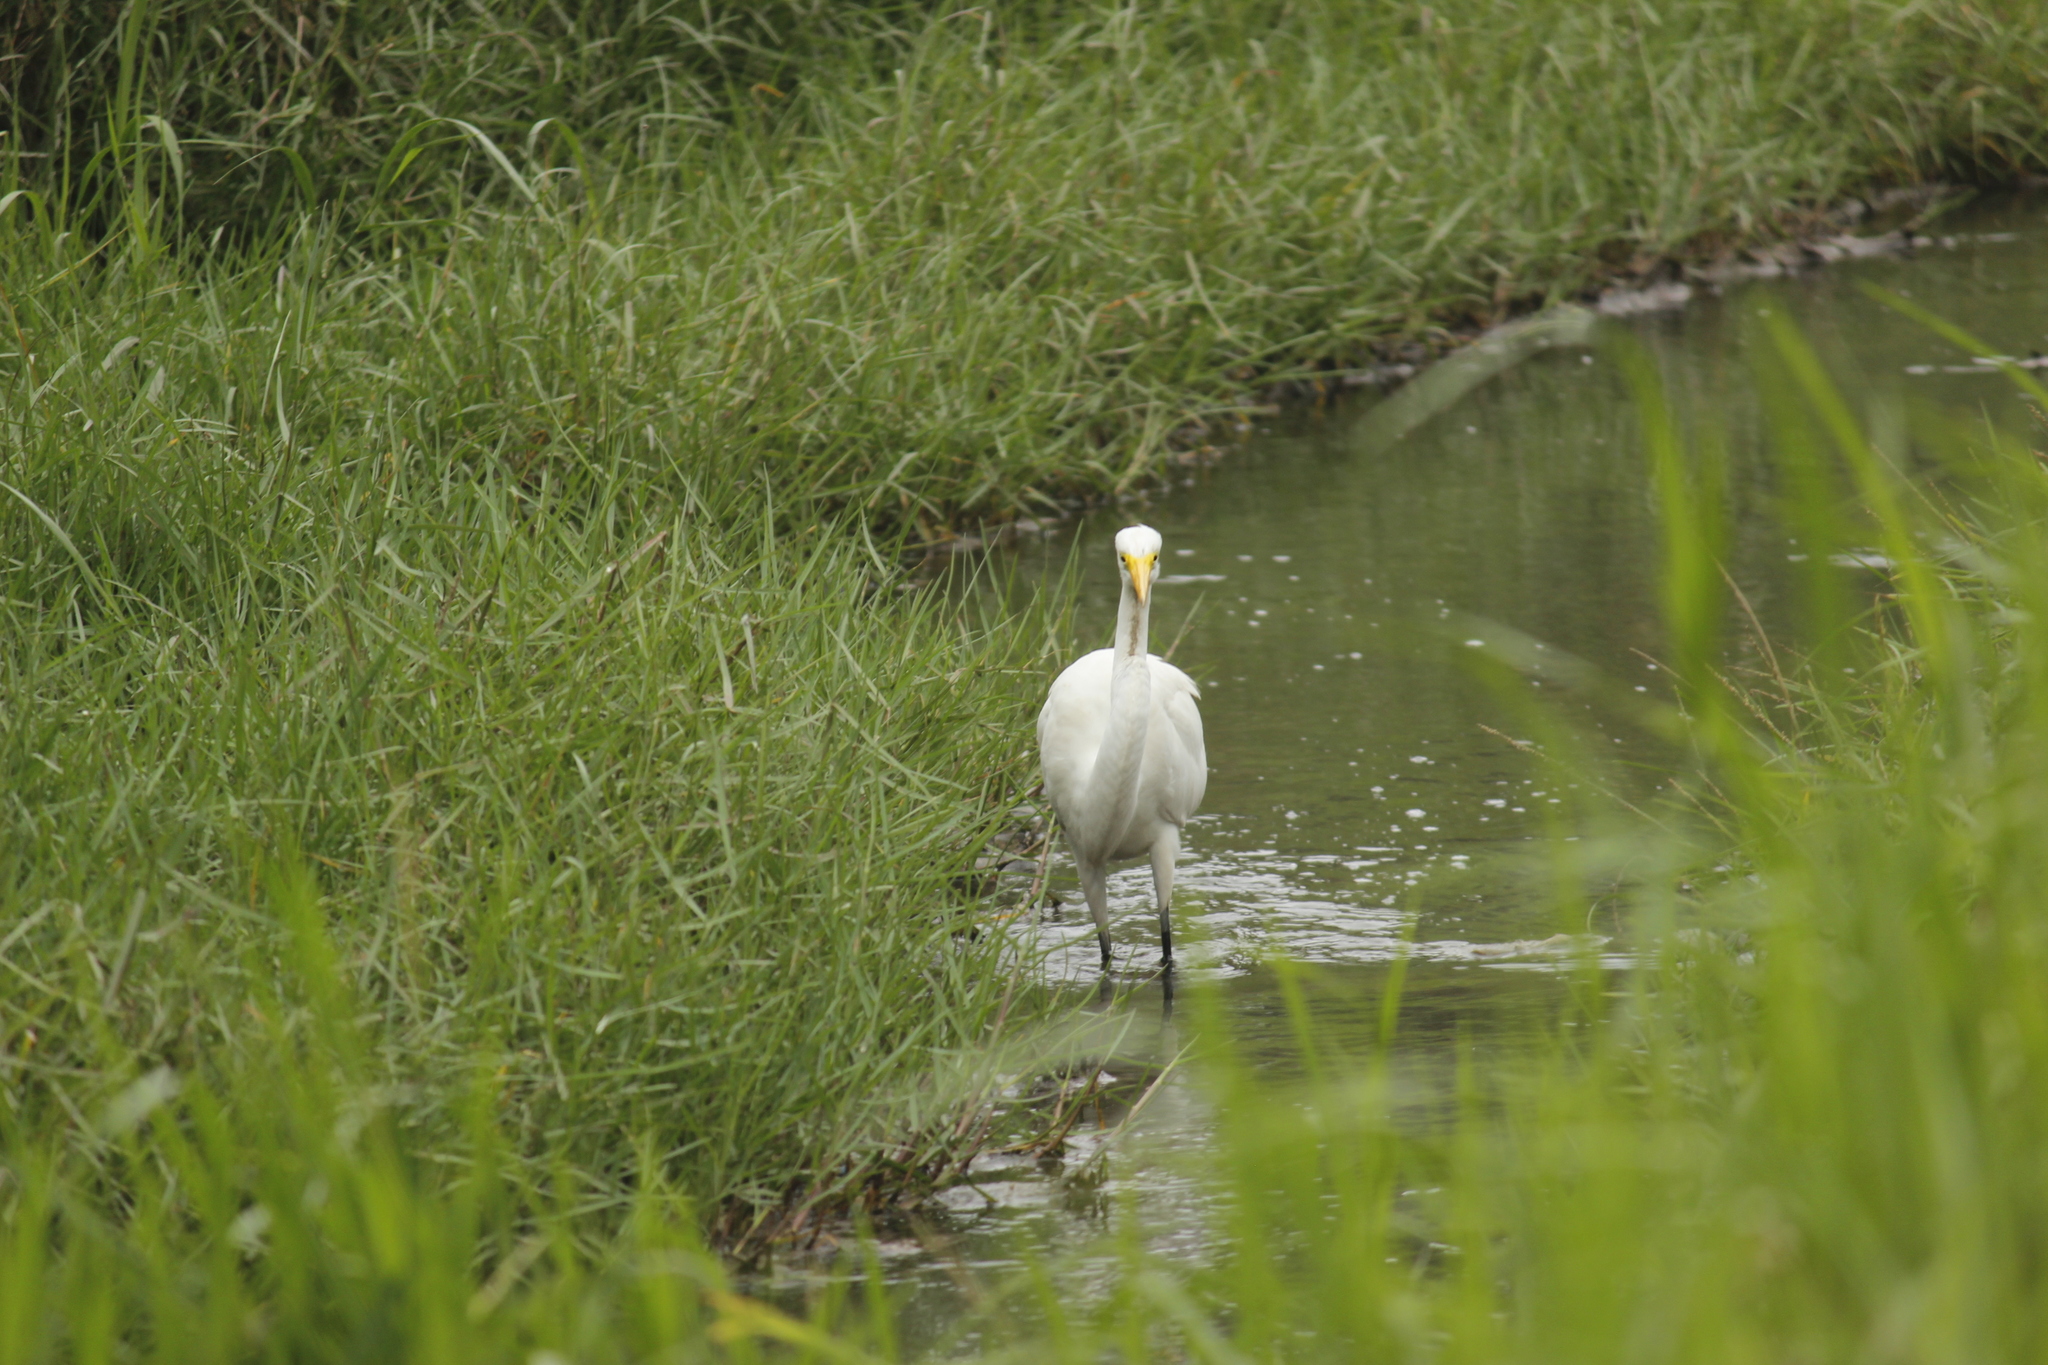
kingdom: Animalia
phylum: Chordata
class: Aves
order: Pelecaniformes
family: Ardeidae
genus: Ardea
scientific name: Ardea alba
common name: Great egret
